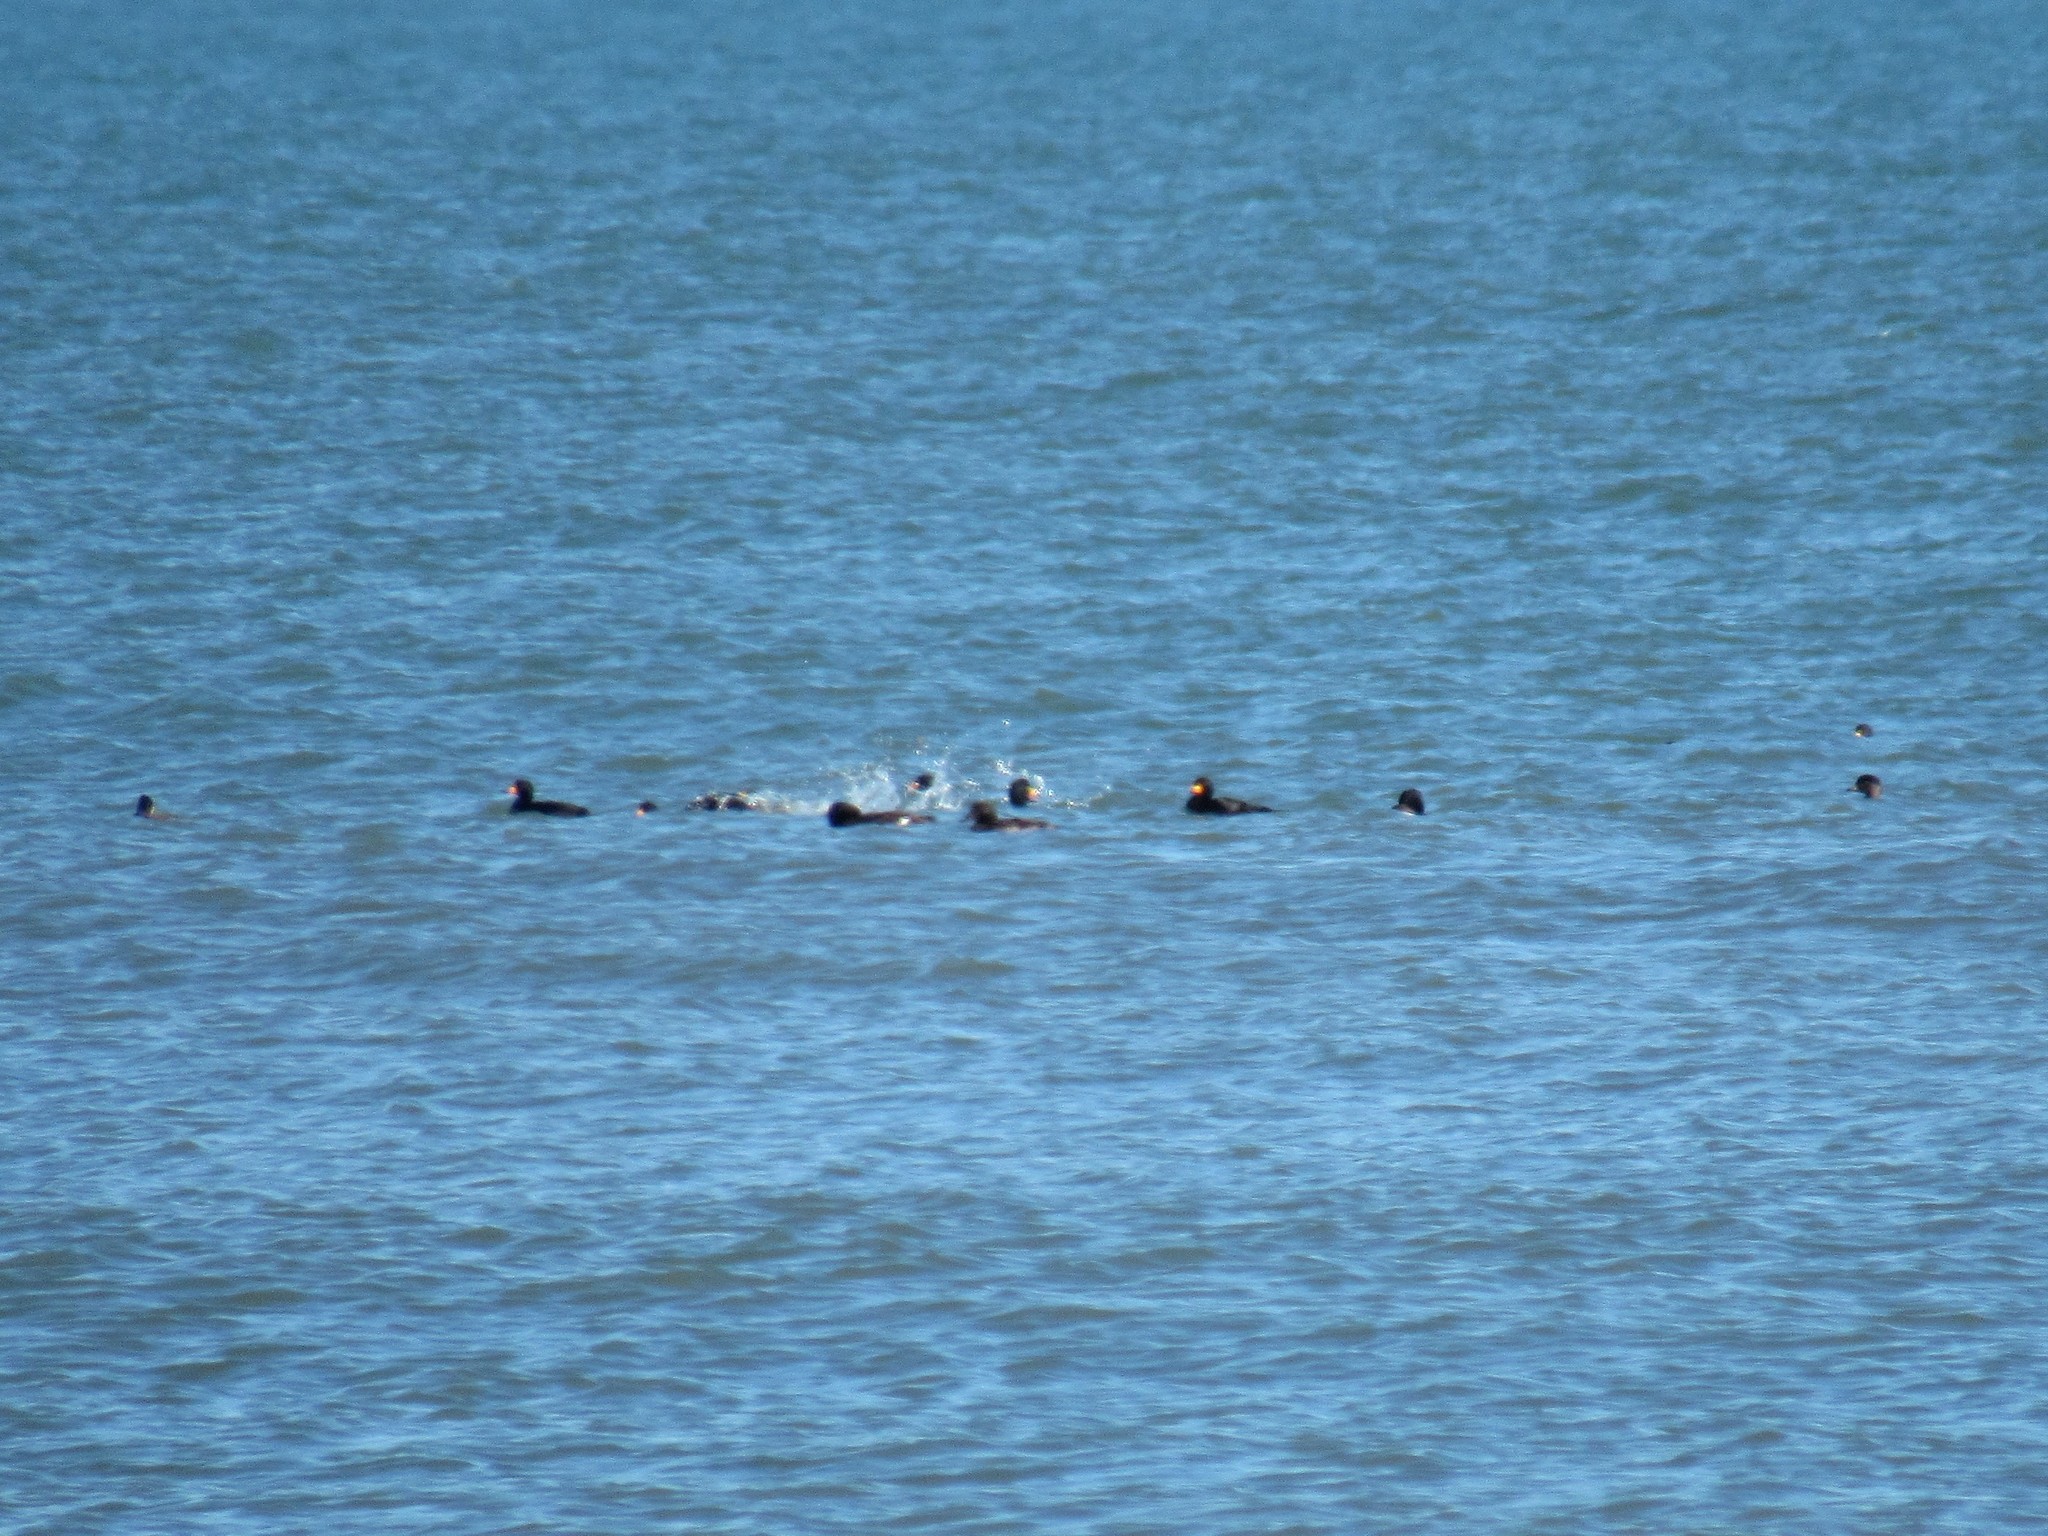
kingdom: Animalia
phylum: Chordata
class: Aves
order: Anseriformes
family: Anatidae
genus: Melanitta
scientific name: Melanitta americana
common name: Black scoter
